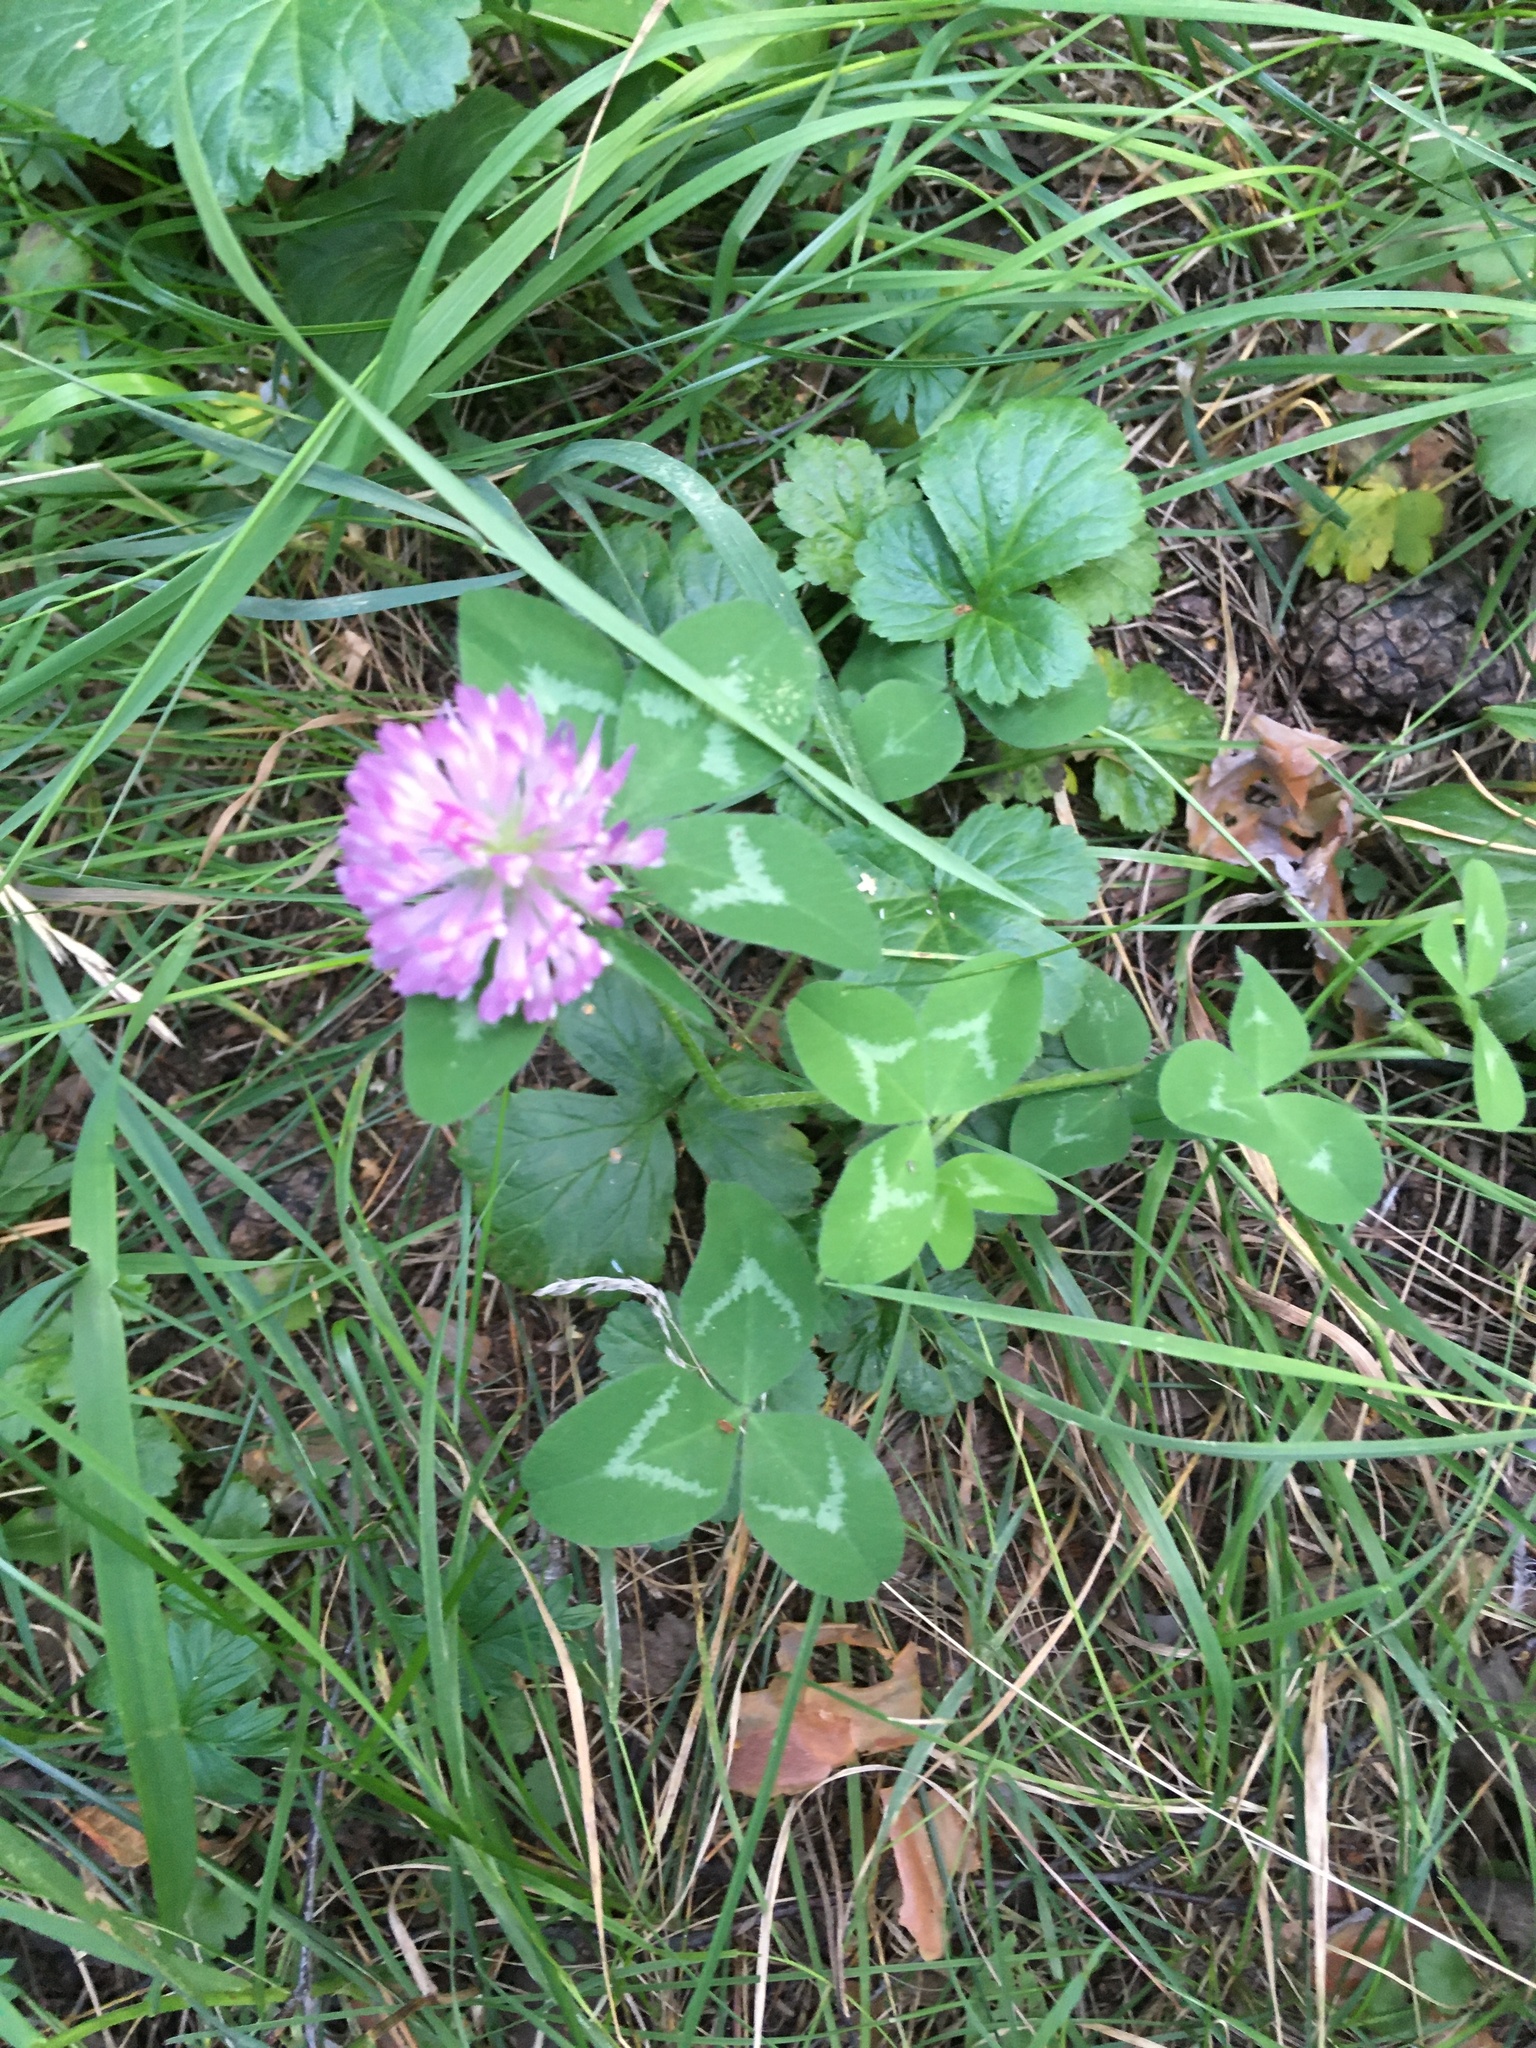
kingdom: Plantae
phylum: Tracheophyta
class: Magnoliopsida
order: Fabales
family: Fabaceae
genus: Trifolium
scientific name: Trifolium pratense
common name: Red clover
